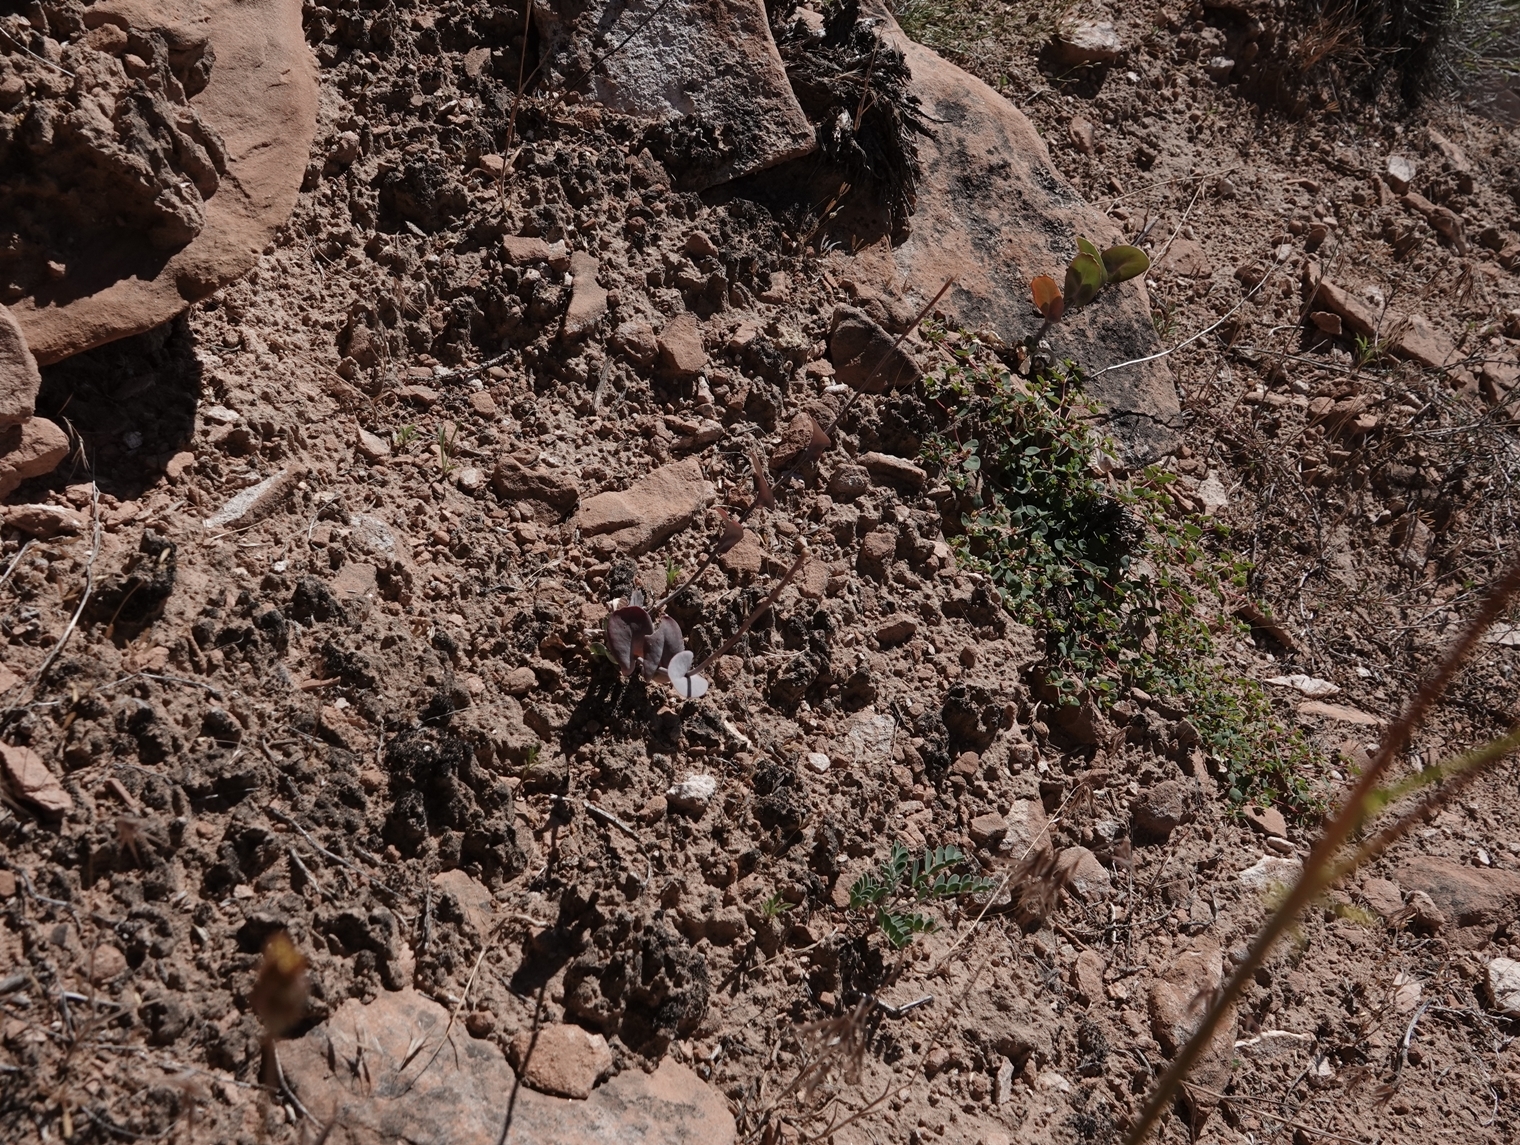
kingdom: Plantae
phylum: Tracheophyta
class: Magnoliopsida
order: Brassicales
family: Brassicaceae
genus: Lepidium
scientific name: Lepidium perfoliatum
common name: Perfoliate pepperwort
